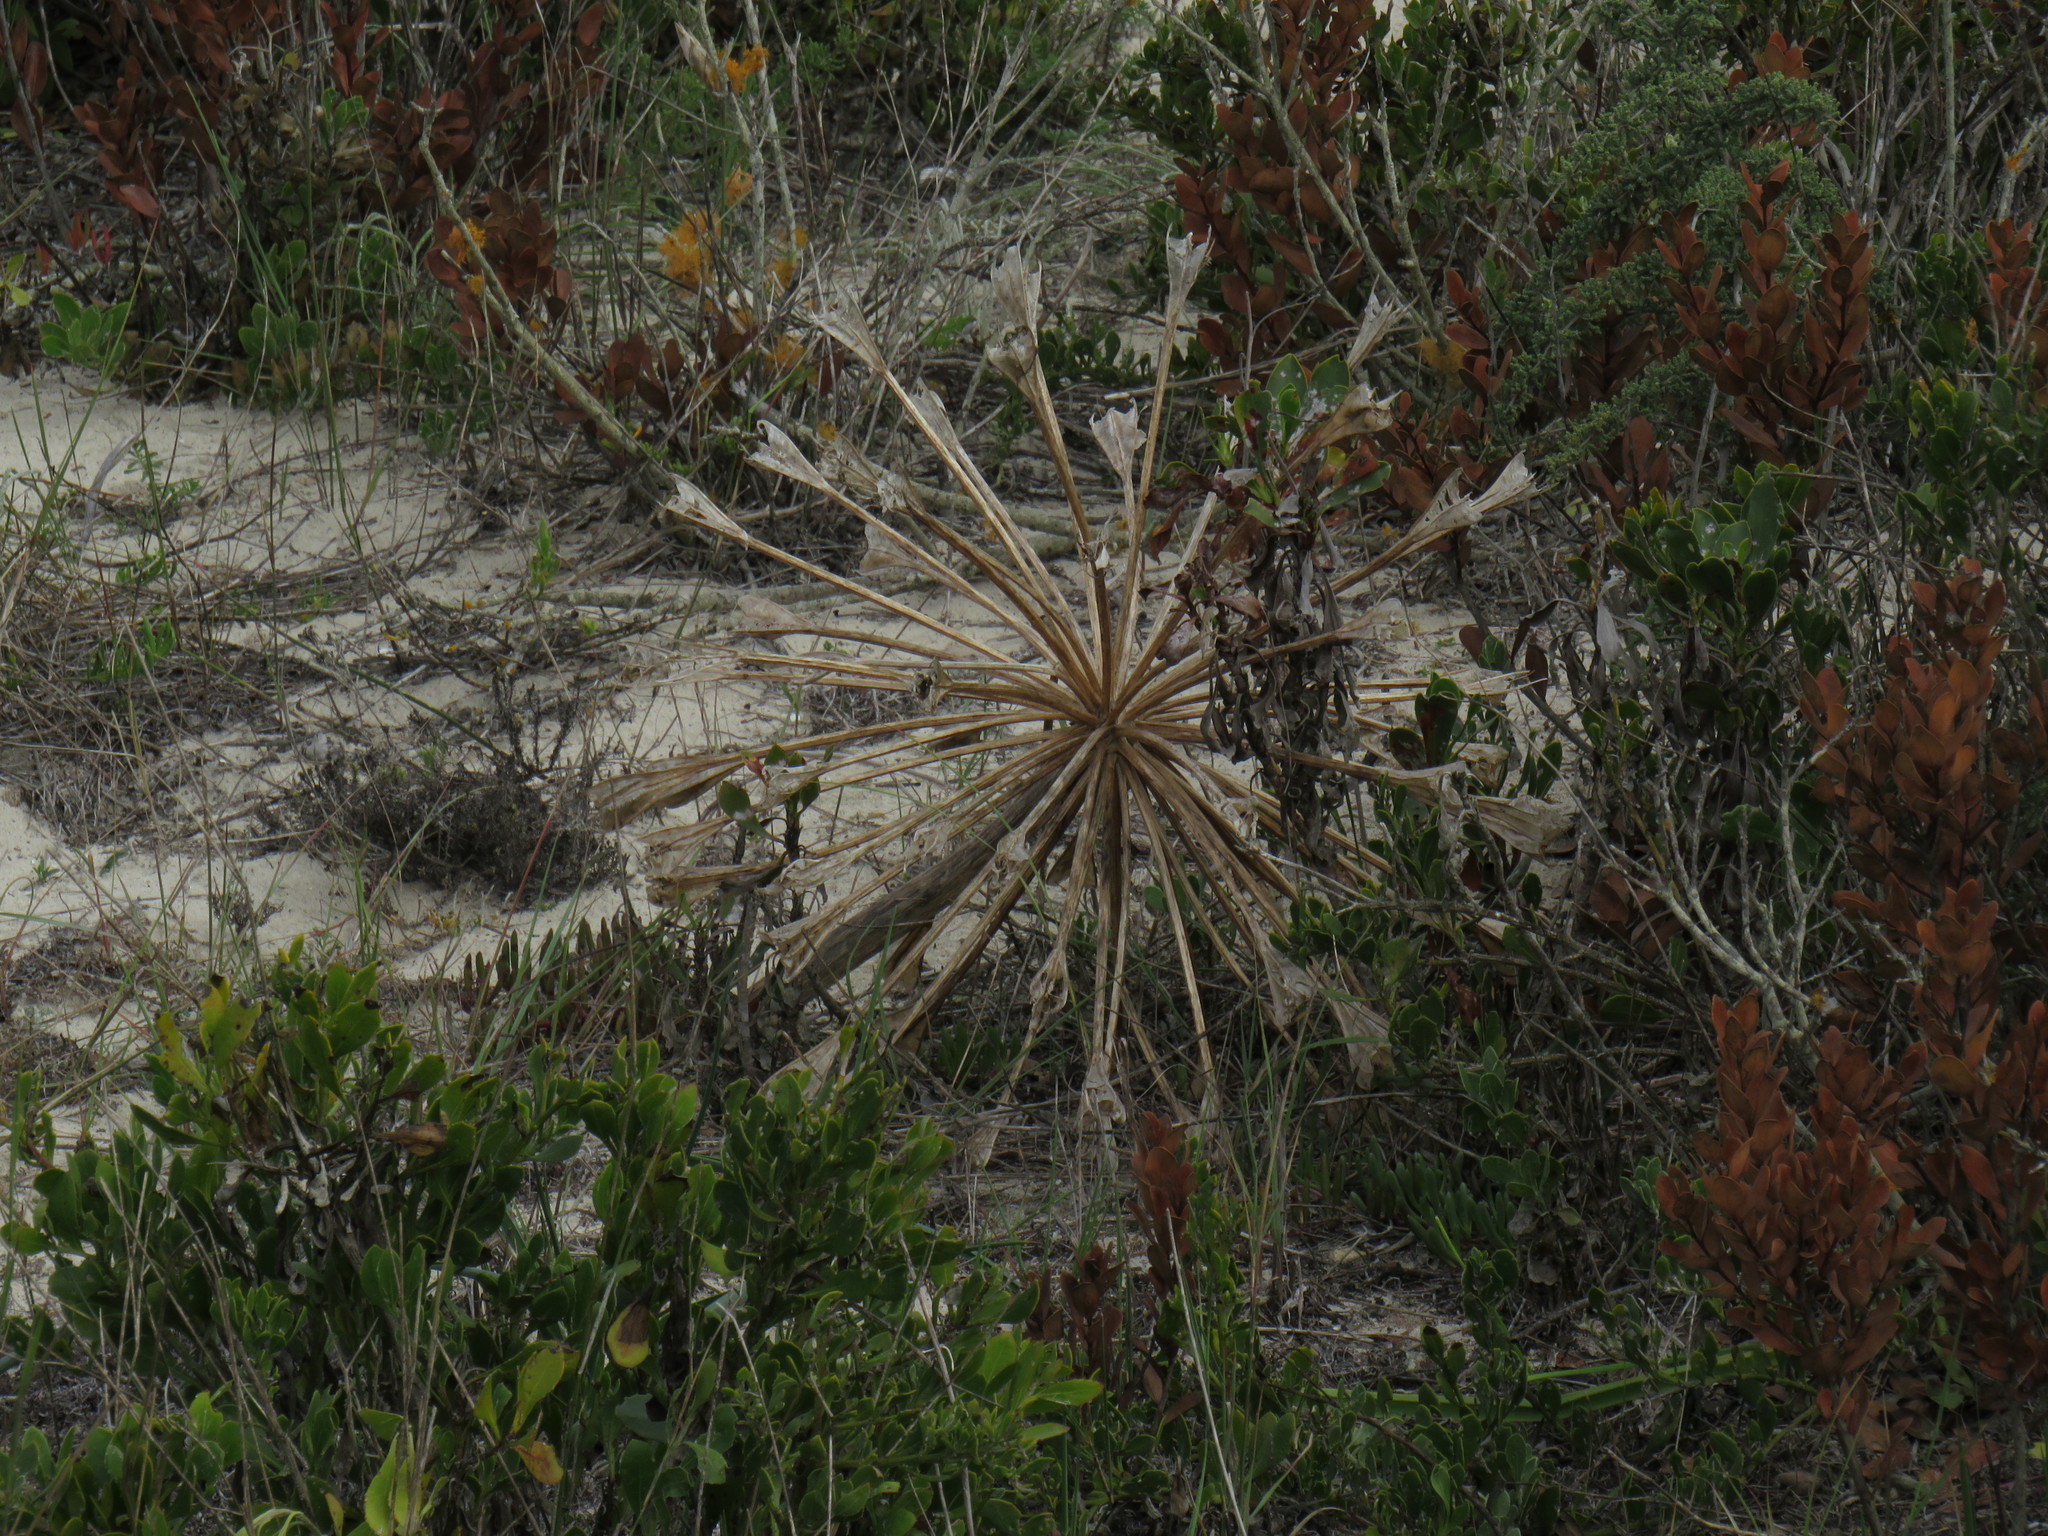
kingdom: Plantae
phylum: Tracheophyta
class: Liliopsida
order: Asparagales
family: Amaryllidaceae
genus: Brunsvigia
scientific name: Brunsvigia orientalis
